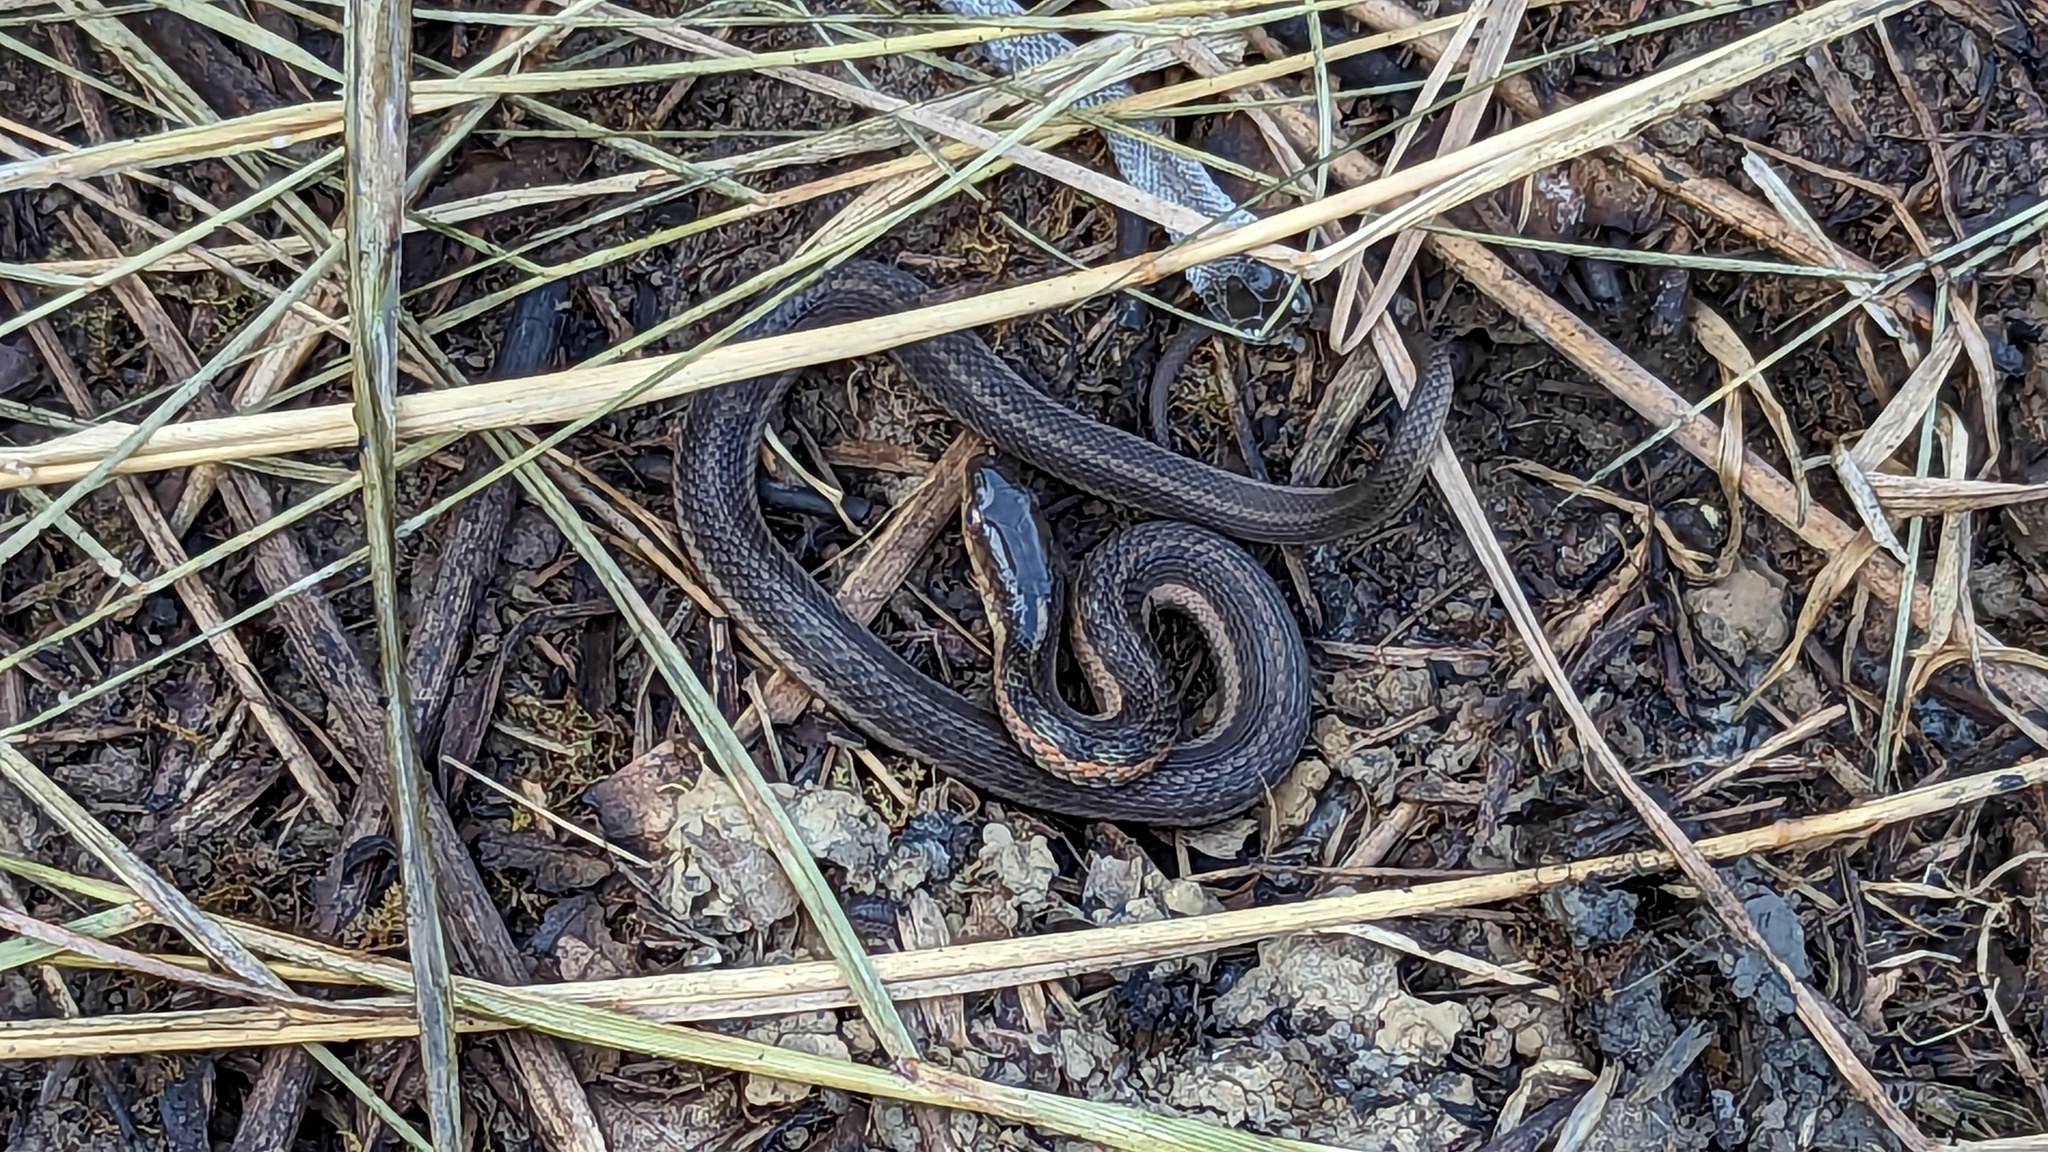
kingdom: Animalia
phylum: Chordata
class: Squamata
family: Colubridae
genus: Thamnophis
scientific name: Thamnophis sirtalis
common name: Common garter snake
